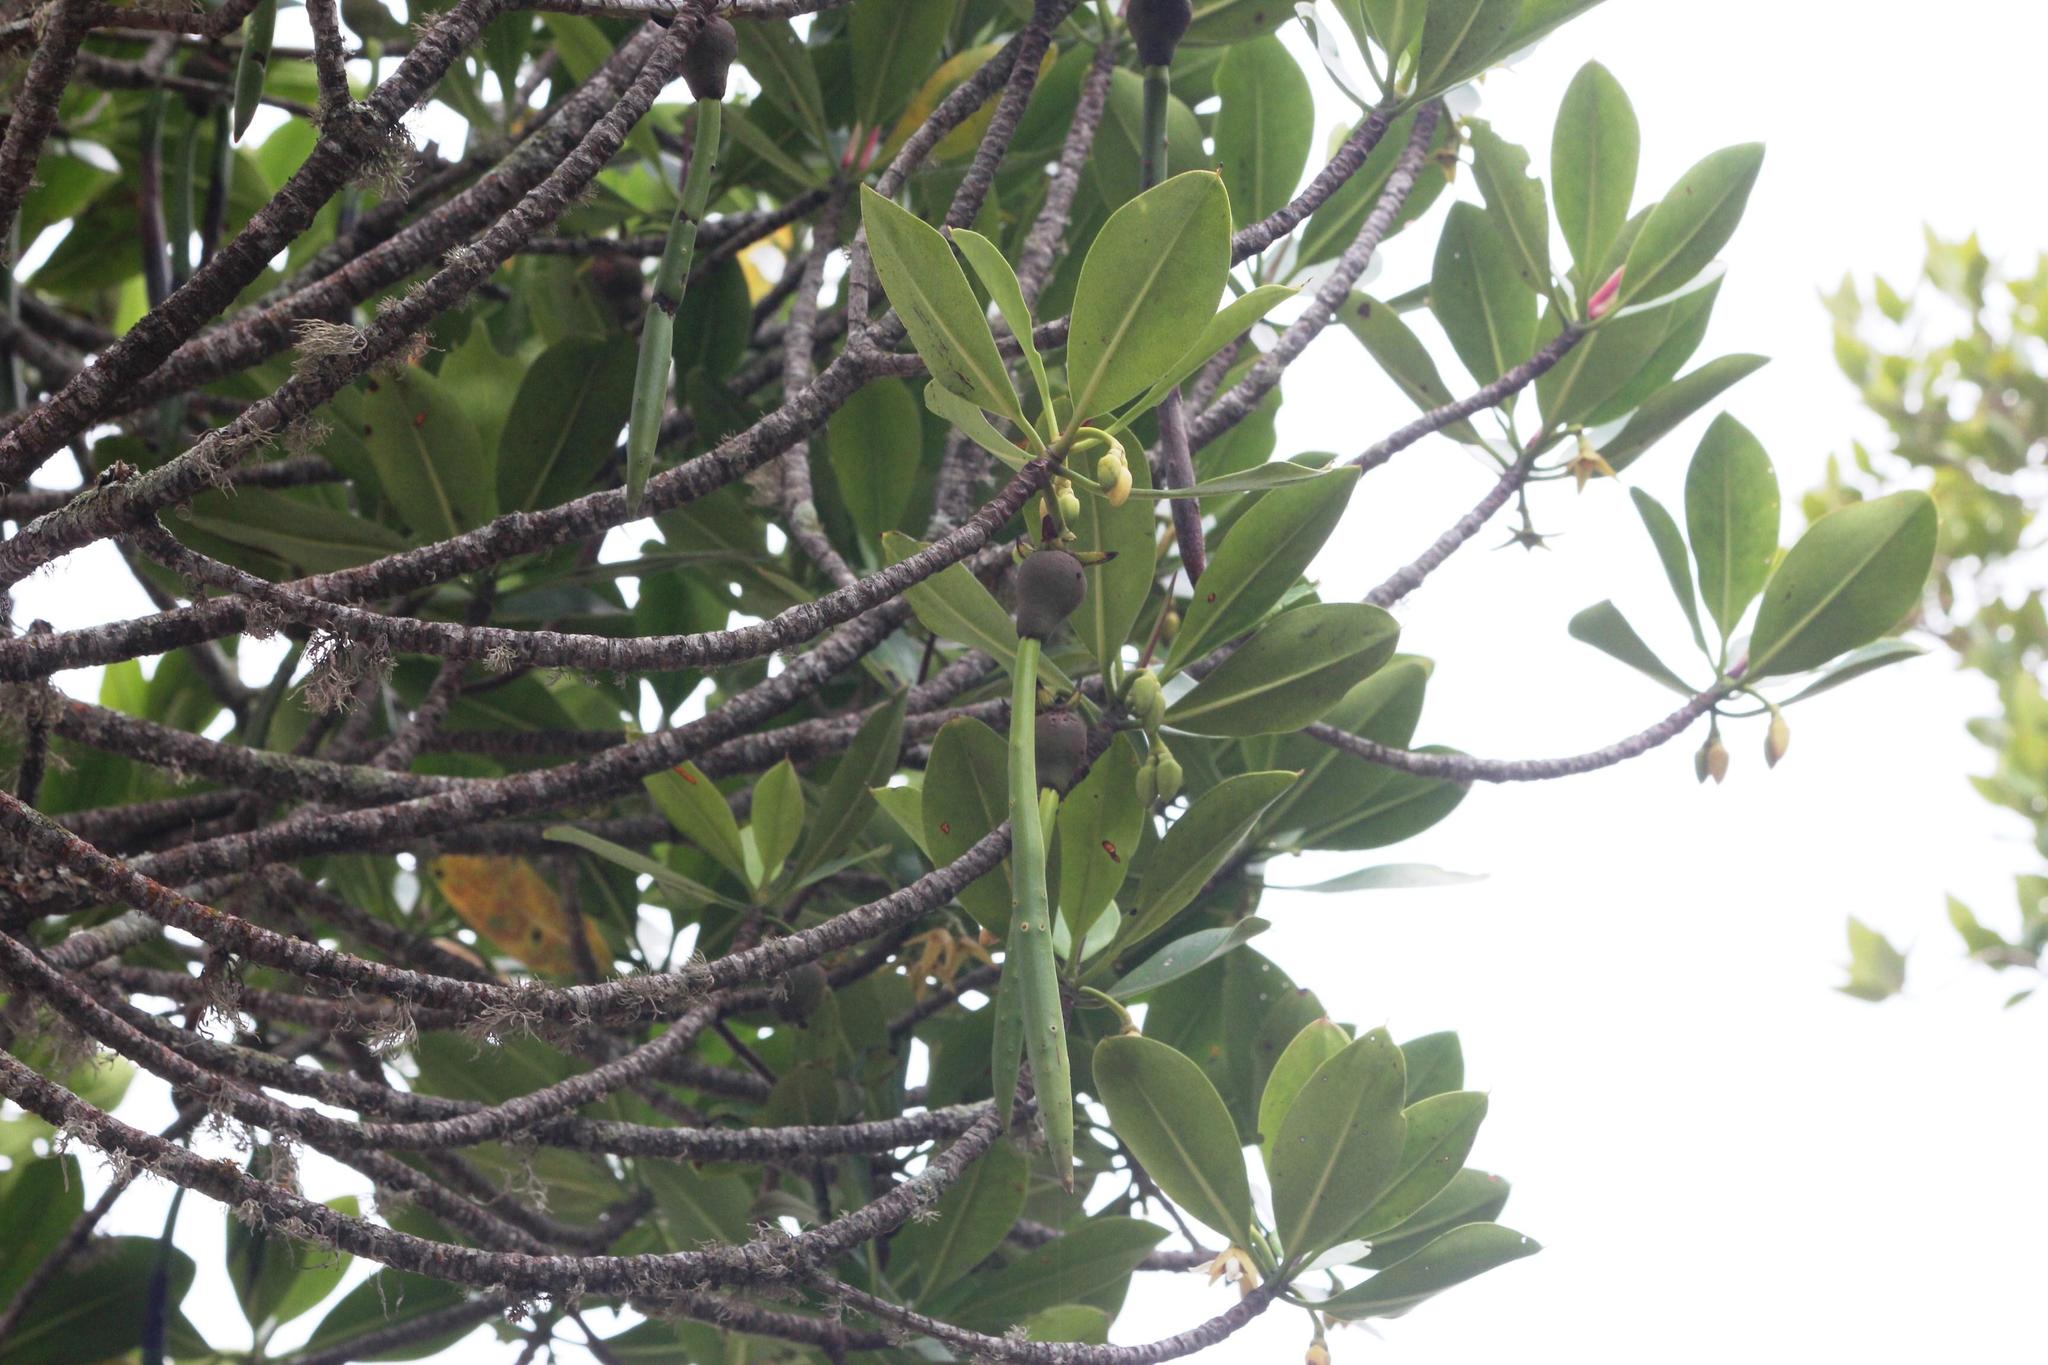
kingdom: Plantae
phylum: Tracheophyta
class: Magnoliopsida
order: Malpighiales
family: Rhizophoraceae
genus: Rhizophora
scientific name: Rhizophora mucronata
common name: Loop-root mangrove
